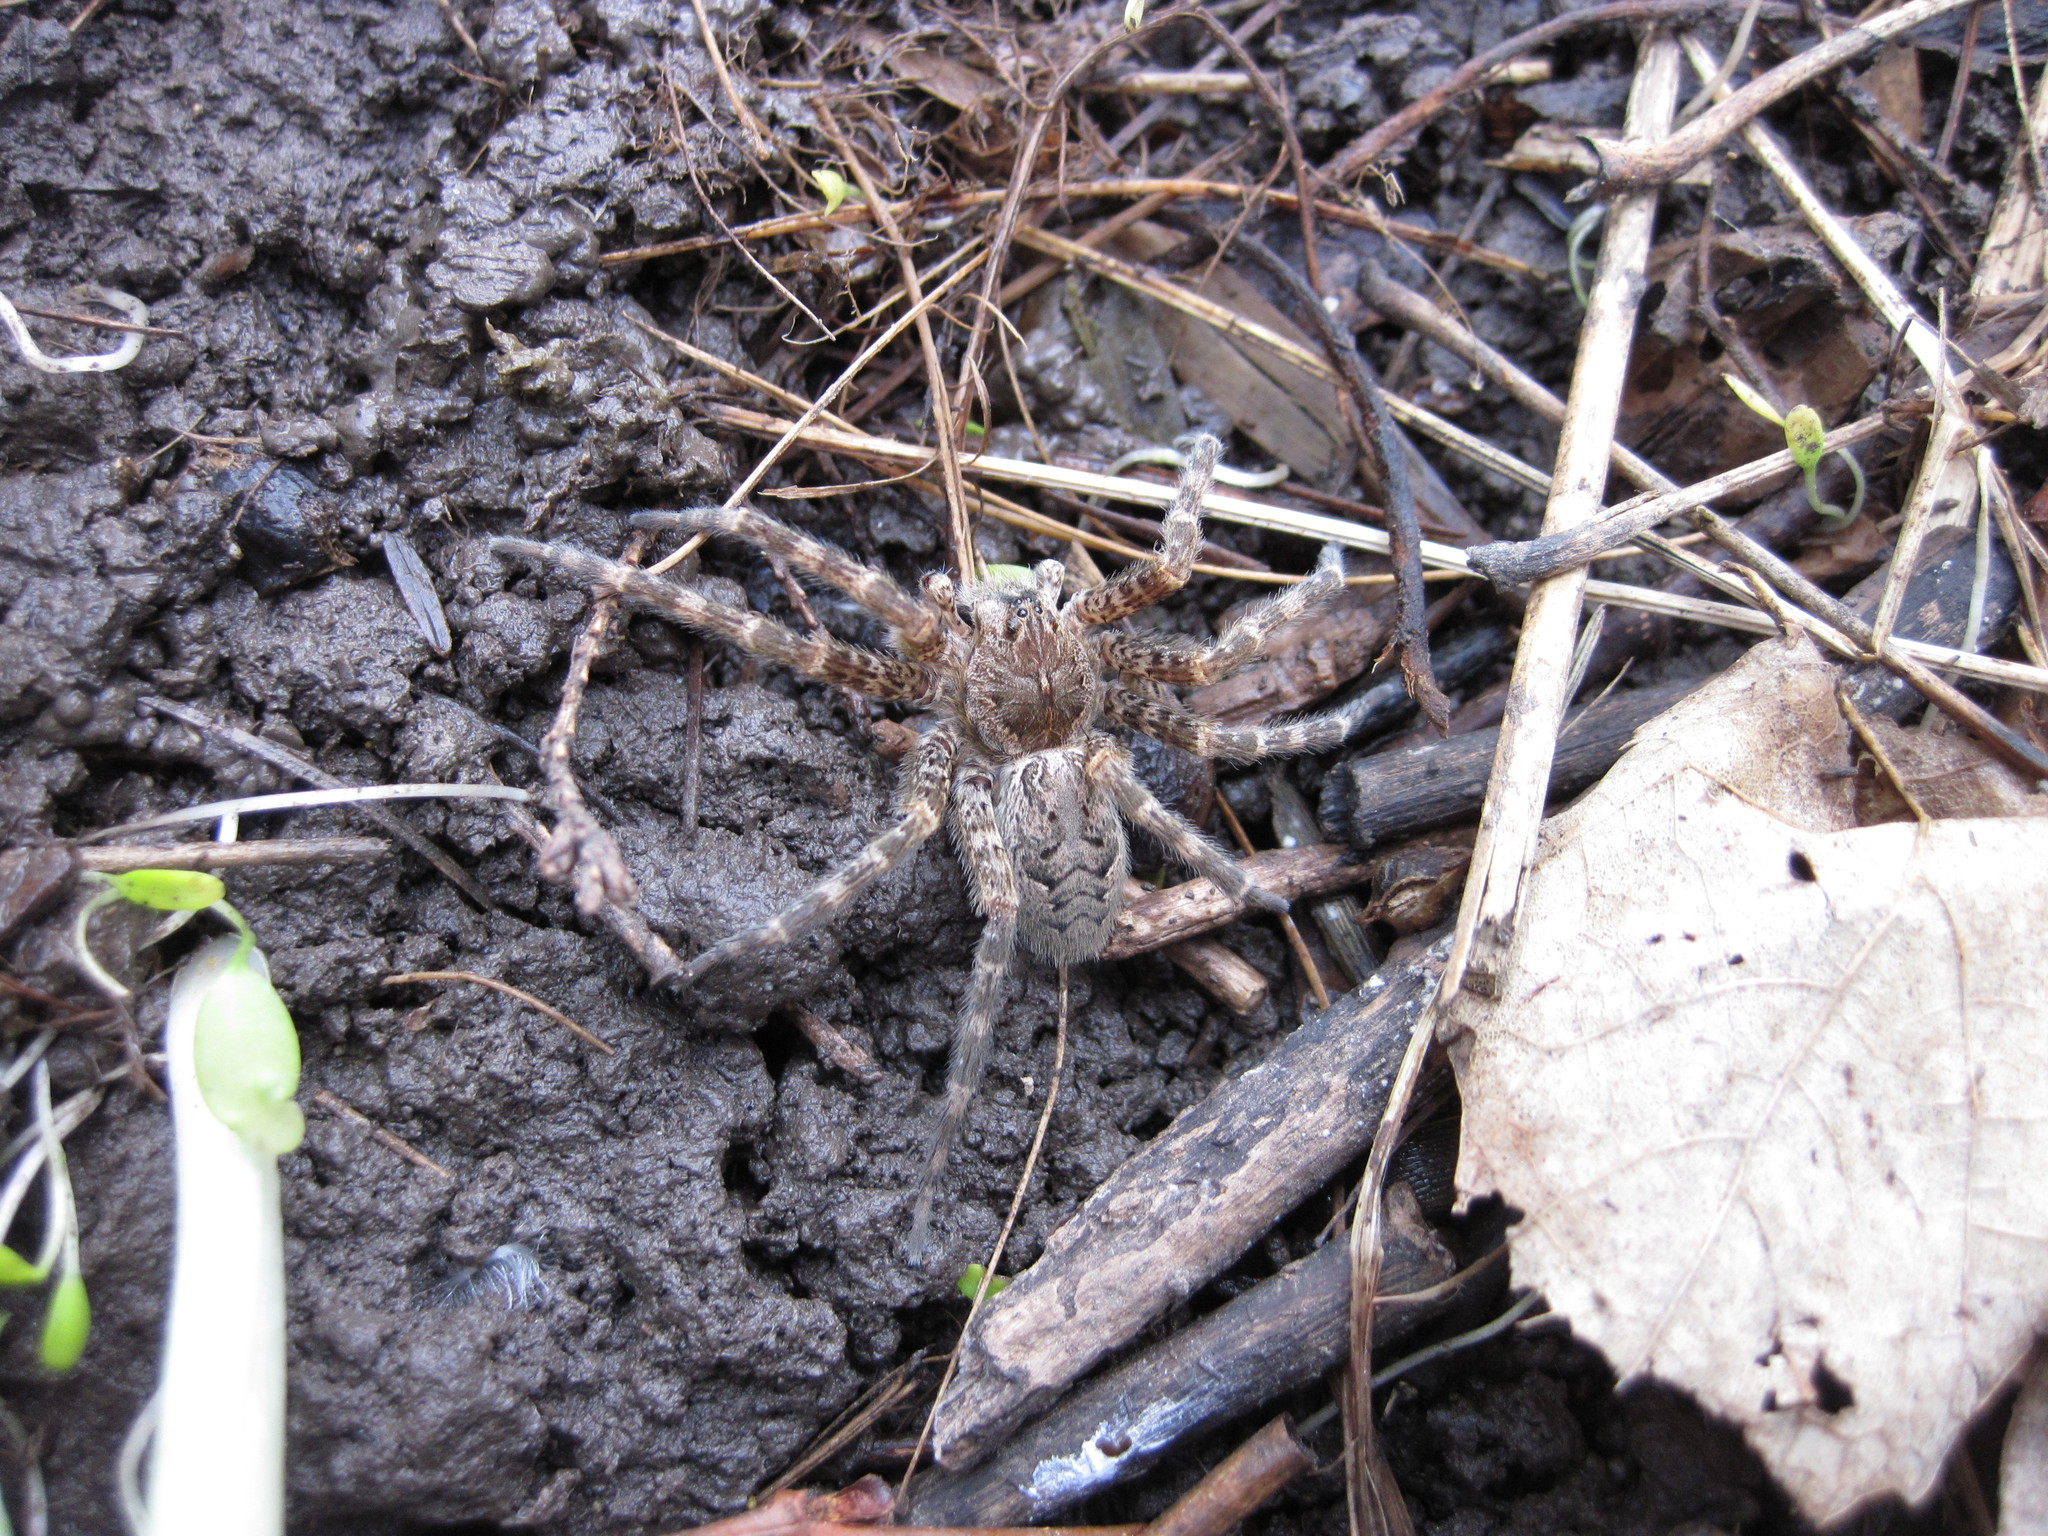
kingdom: Animalia
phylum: Arthropoda
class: Arachnida
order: Araneae
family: Pisauridae
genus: Dolomedes
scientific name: Dolomedes tenebrosus
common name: Dark fishing spider
